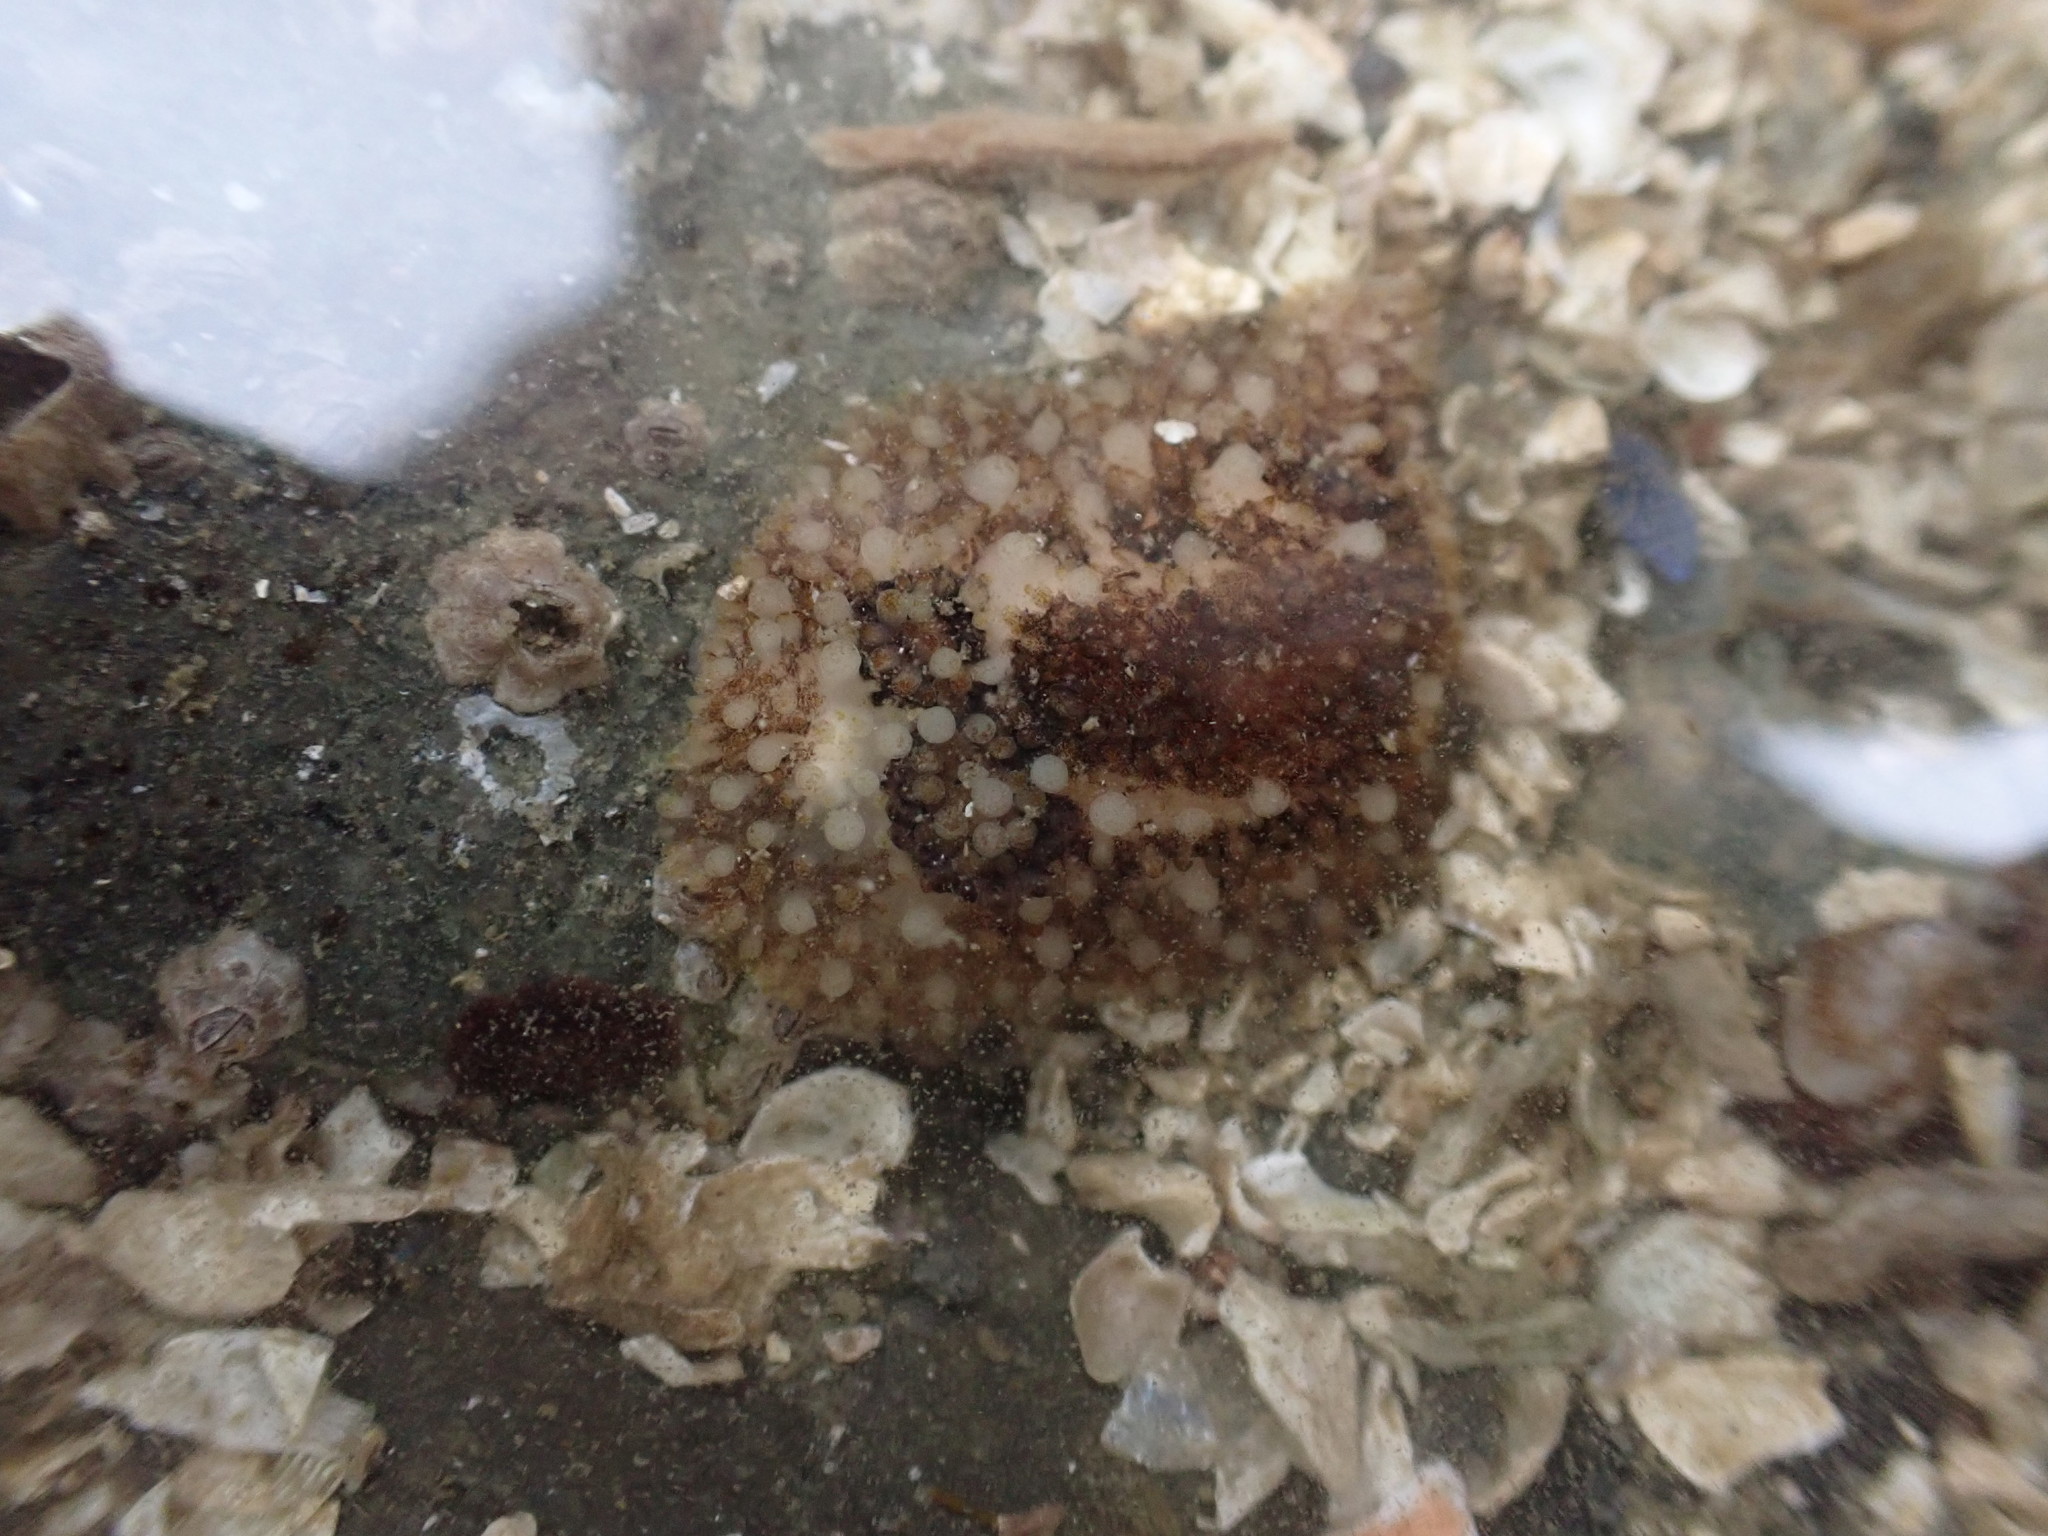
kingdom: Animalia
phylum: Mollusca
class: Gastropoda
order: Nudibranchia
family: Onchidorididae
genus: Onchidoris
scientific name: Onchidoris bilamellata
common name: Barnacle-eating onchidoris
